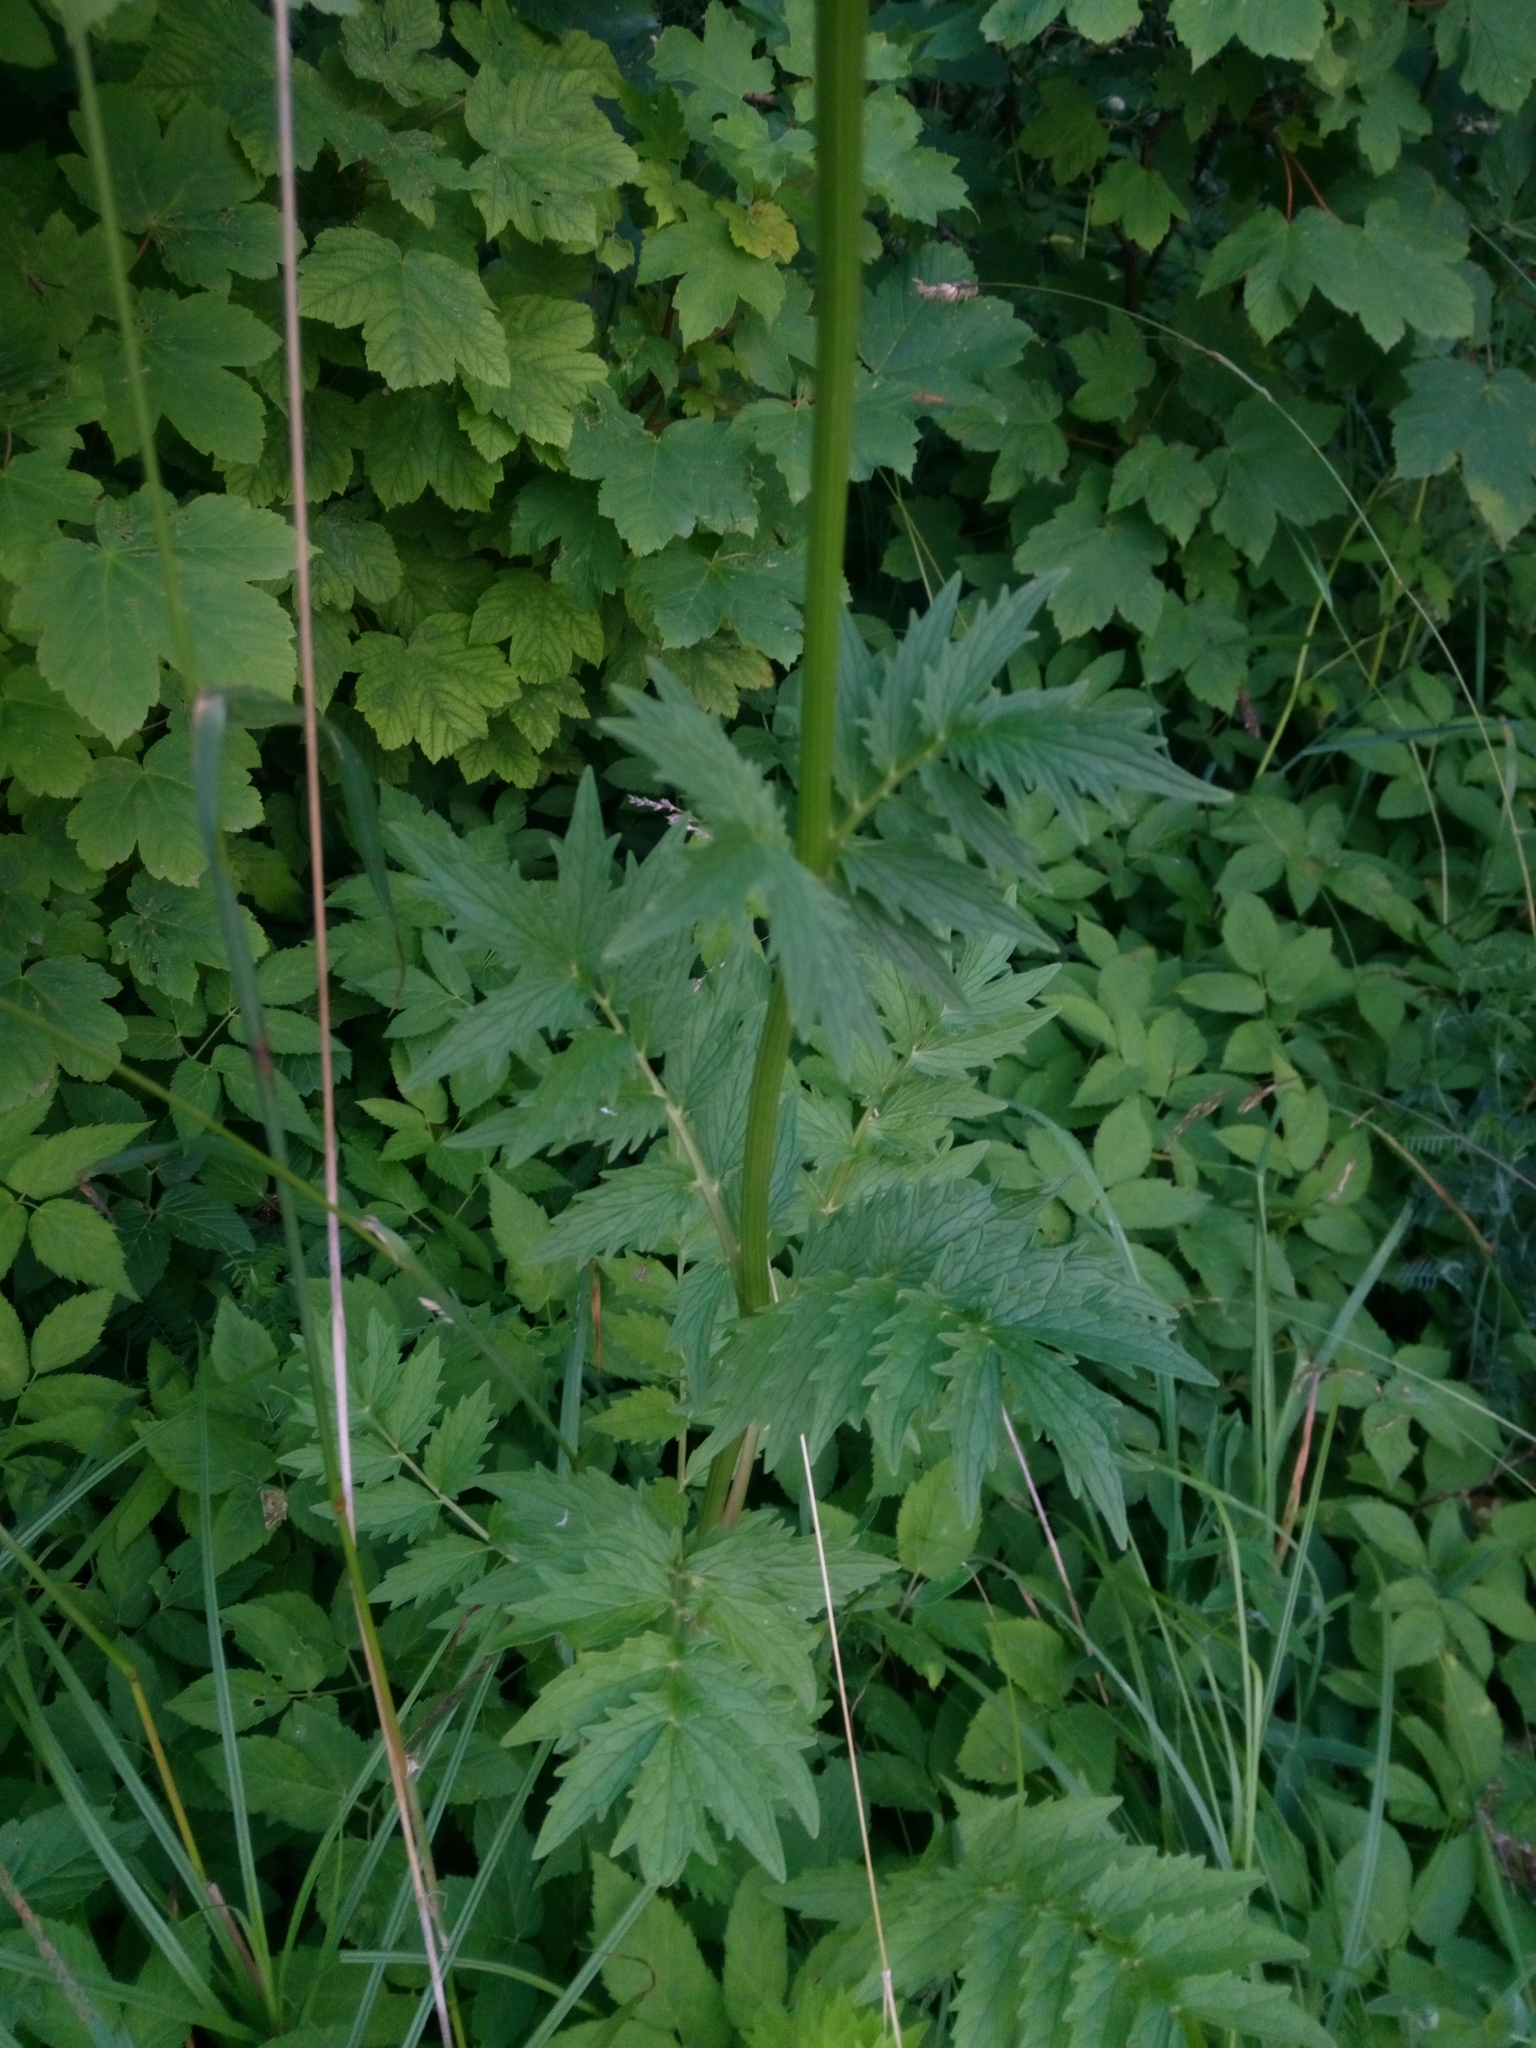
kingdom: Plantae
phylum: Tracheophyta
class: Magnoliopsida
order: Dipsacales
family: Caprifoliaceae
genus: Valeriana
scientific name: Valeriana officinalis
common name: Common valerian
